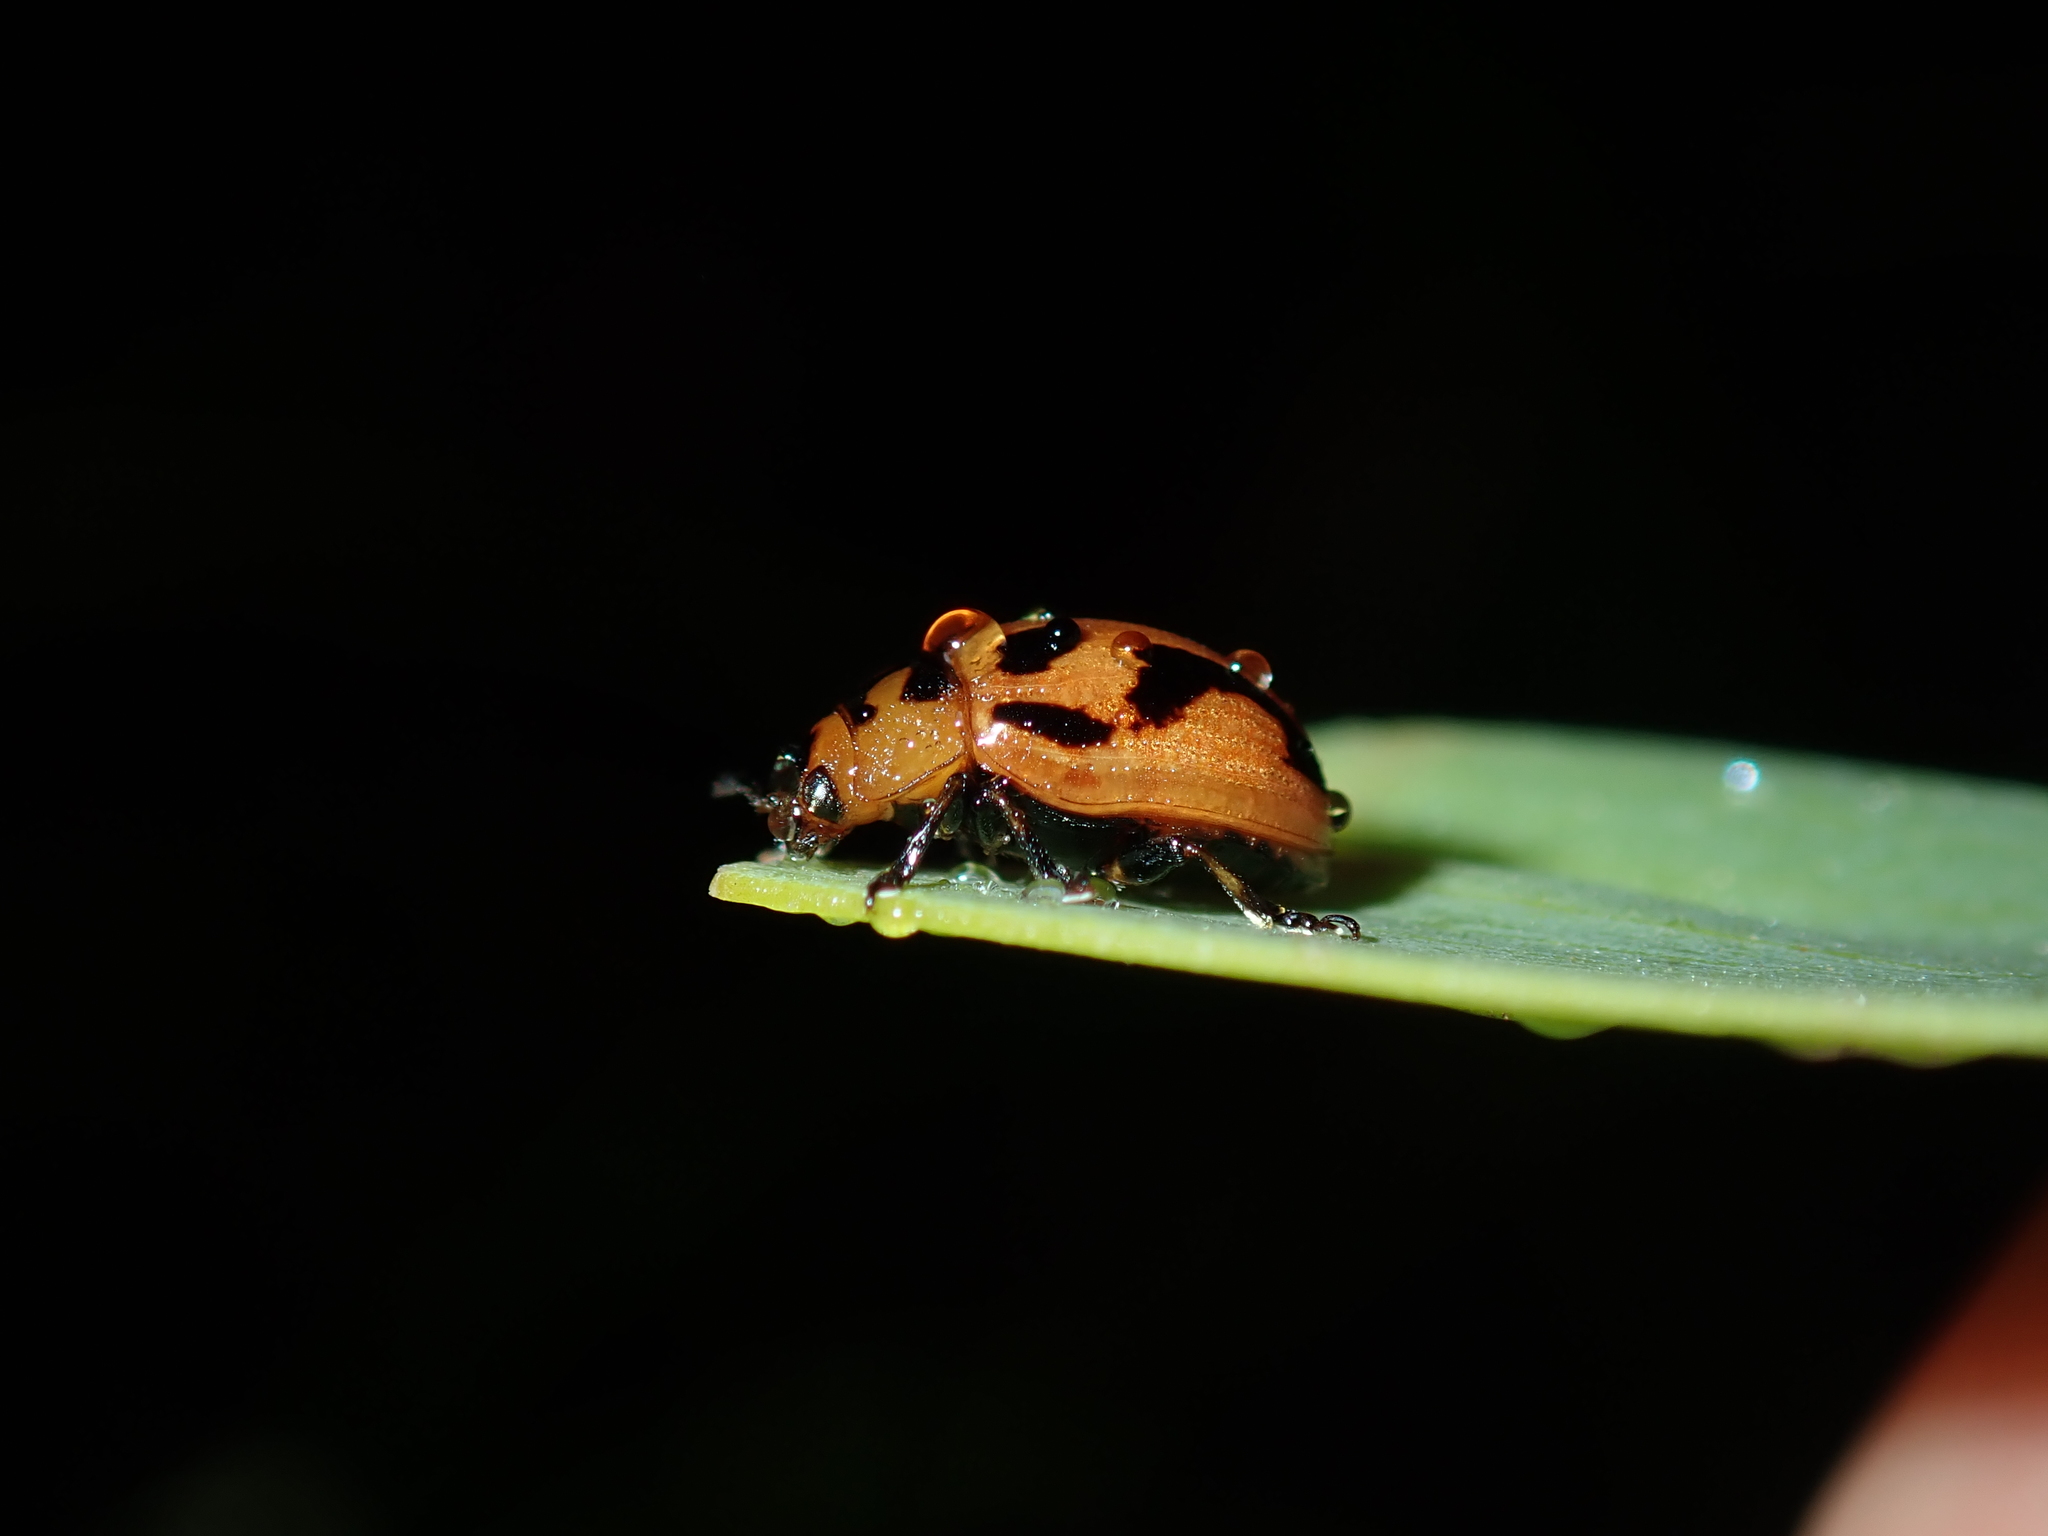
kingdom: Animalia
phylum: Arthropoda
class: Insecta
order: Coleoptera
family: Chrysomelidae
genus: Calomela
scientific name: Calomela
